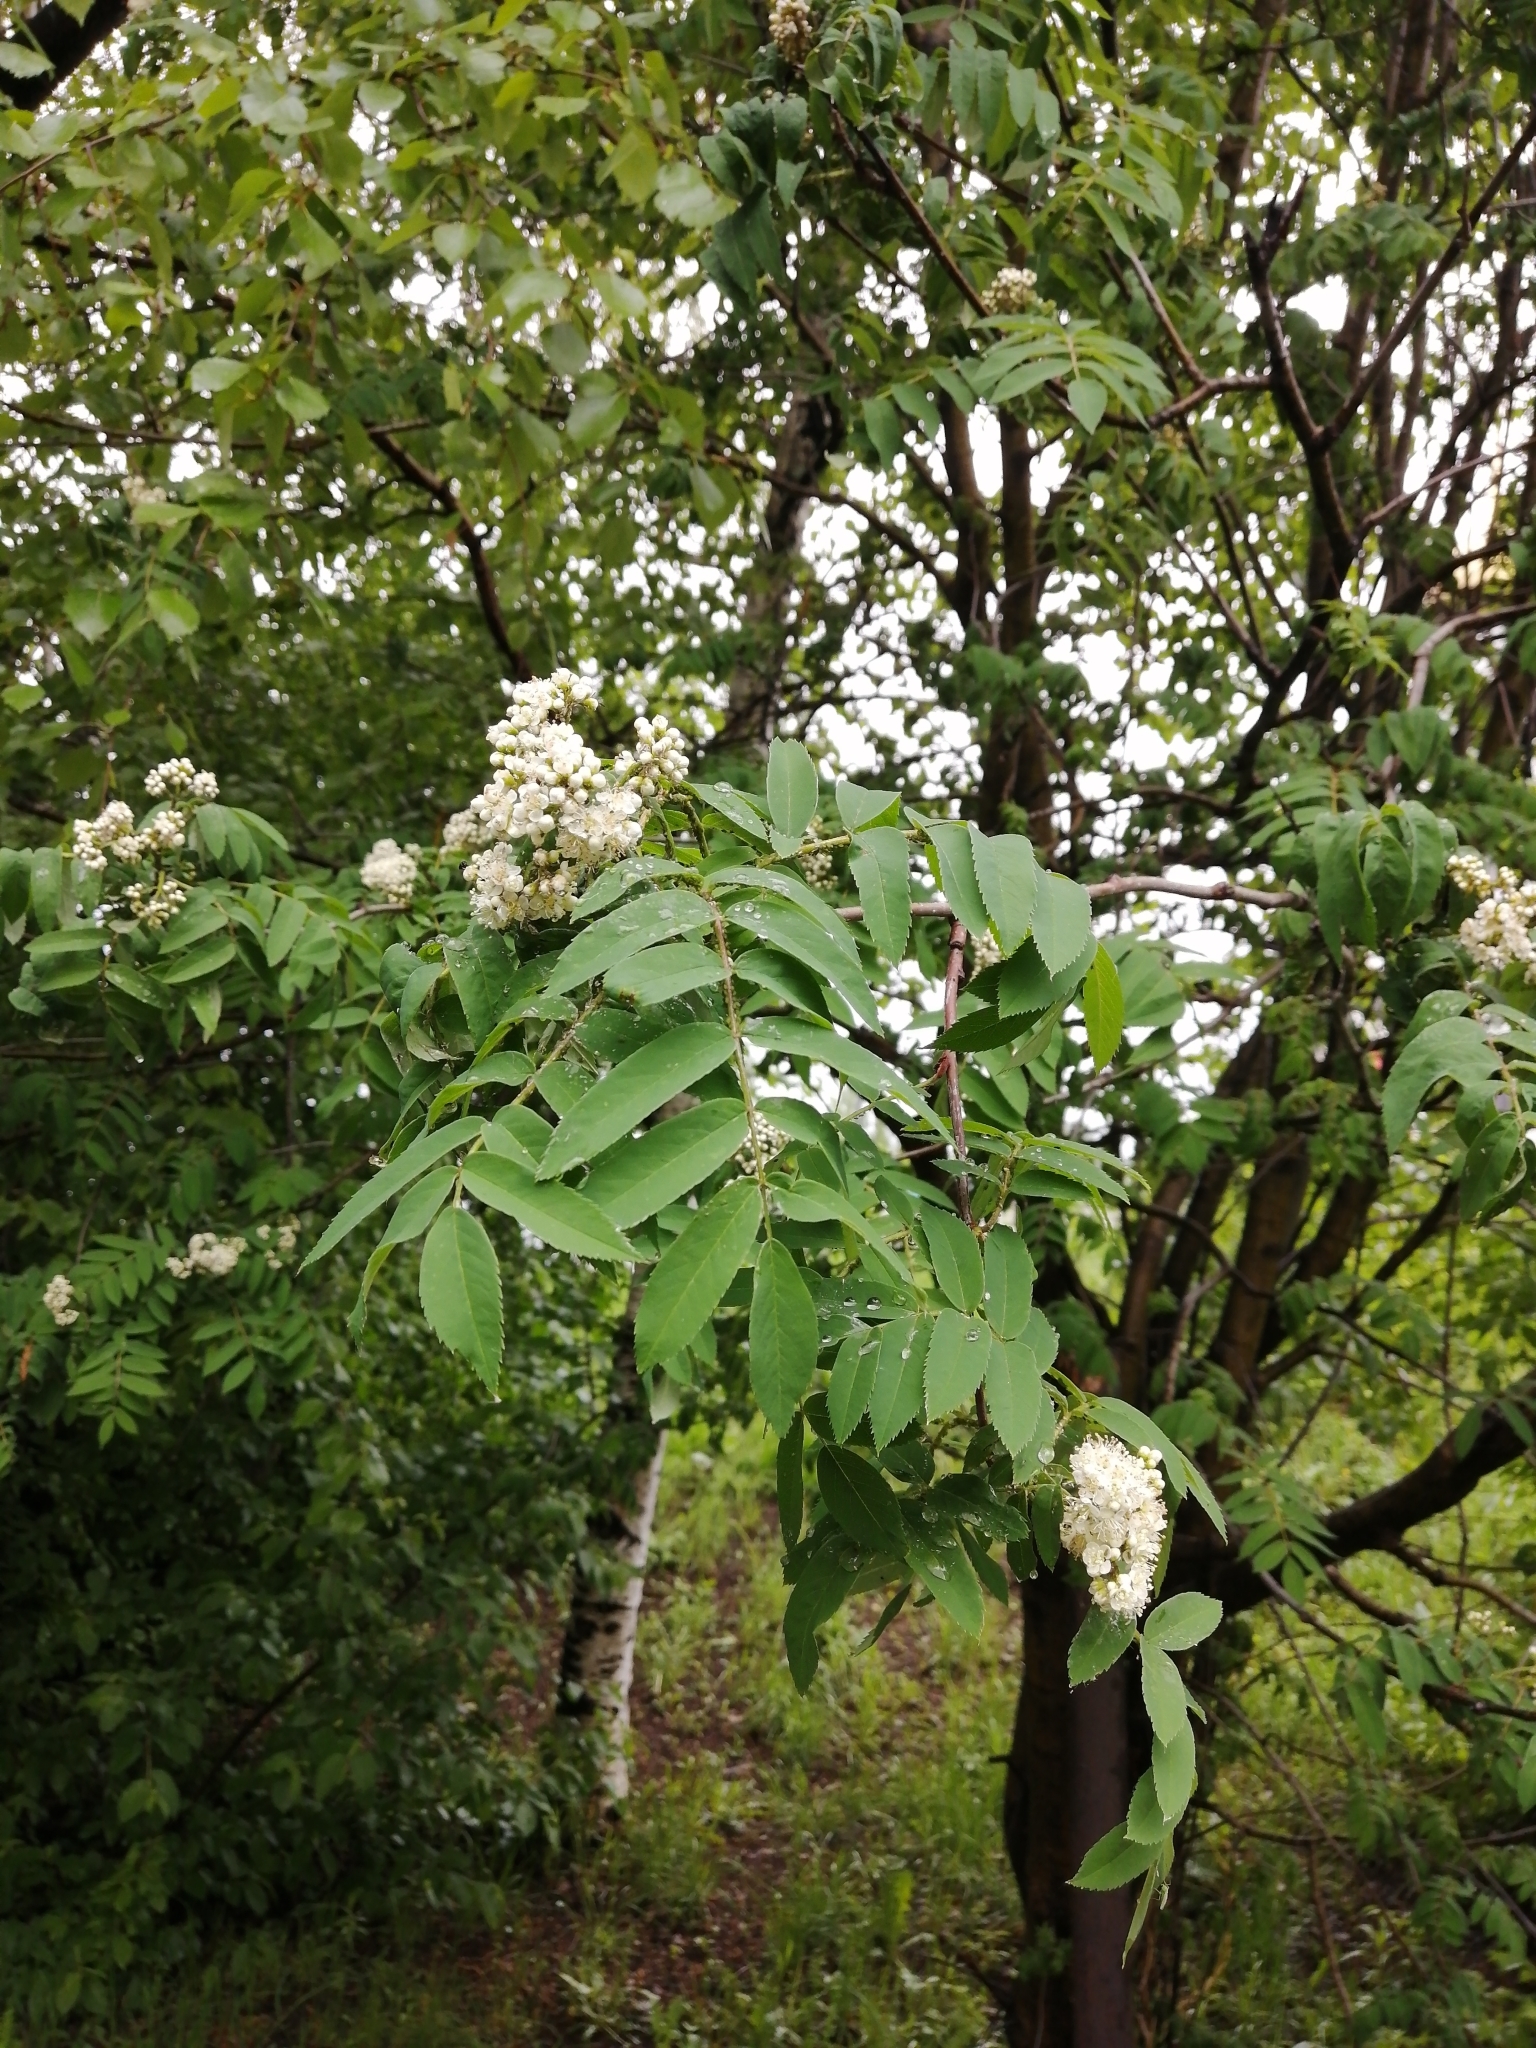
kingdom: Plantae
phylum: Tracheophyta
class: Magnoliopsida
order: Rosales
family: Rosaceae
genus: Sorbus
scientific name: Sorbus aucuparia
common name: Rowan
